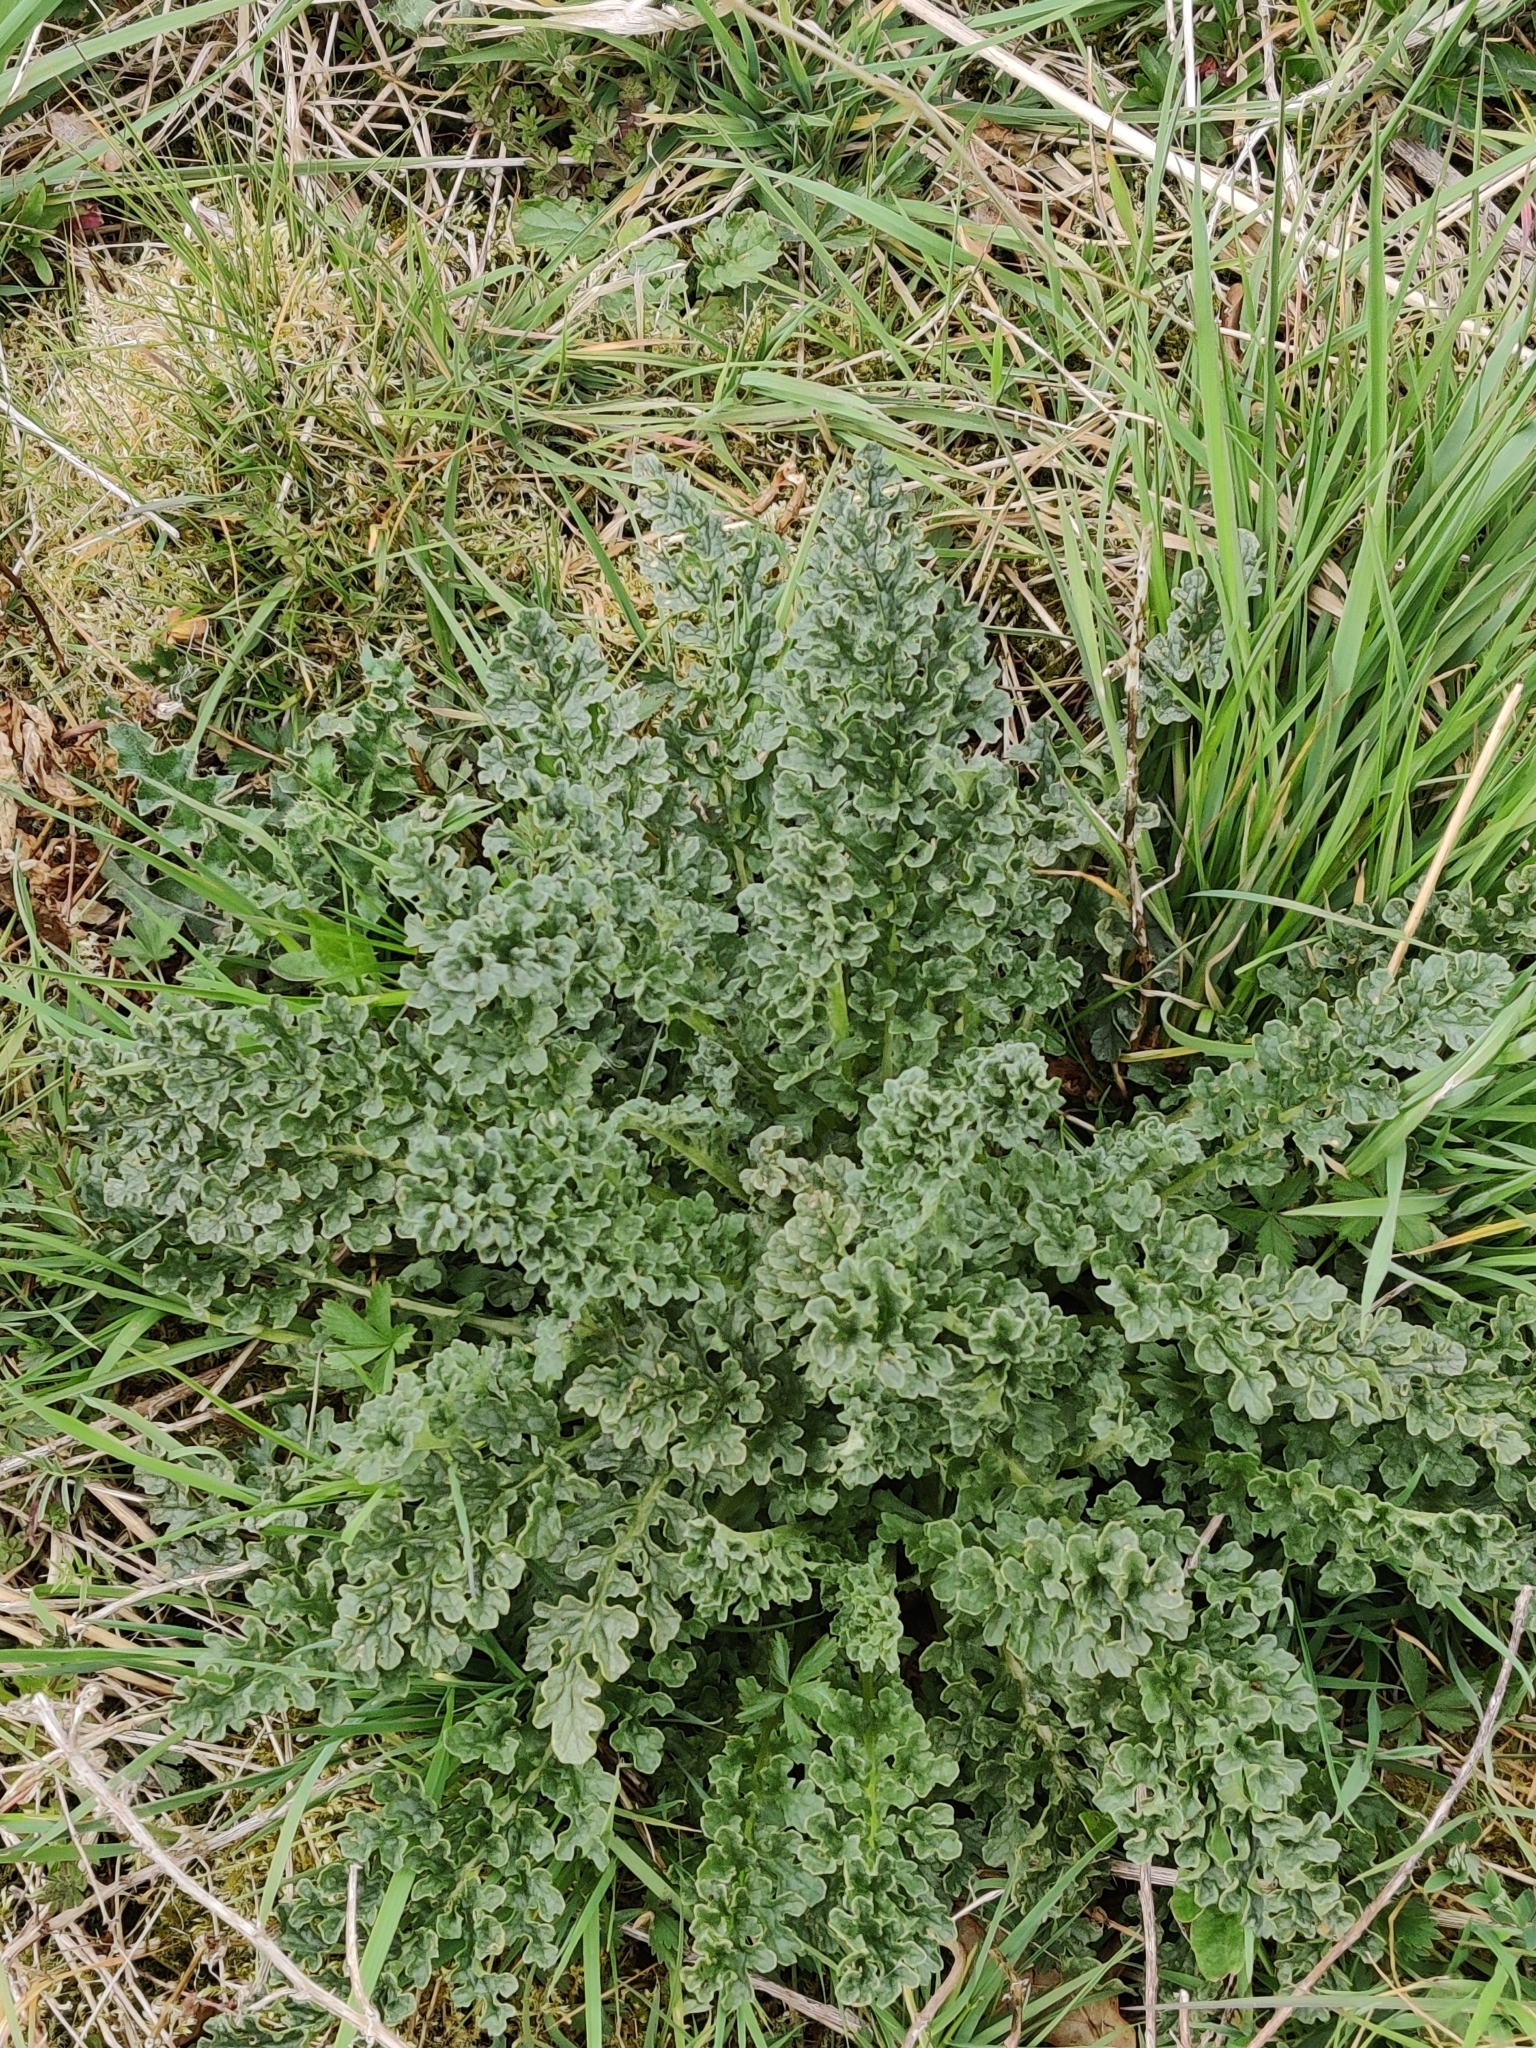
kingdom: Plantae
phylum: Tracheophyta
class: Magnoliopsida
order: Asterales
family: Asteraceae
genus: Jacobaea
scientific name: Jacobaea vulgaris
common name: Stinking willie
